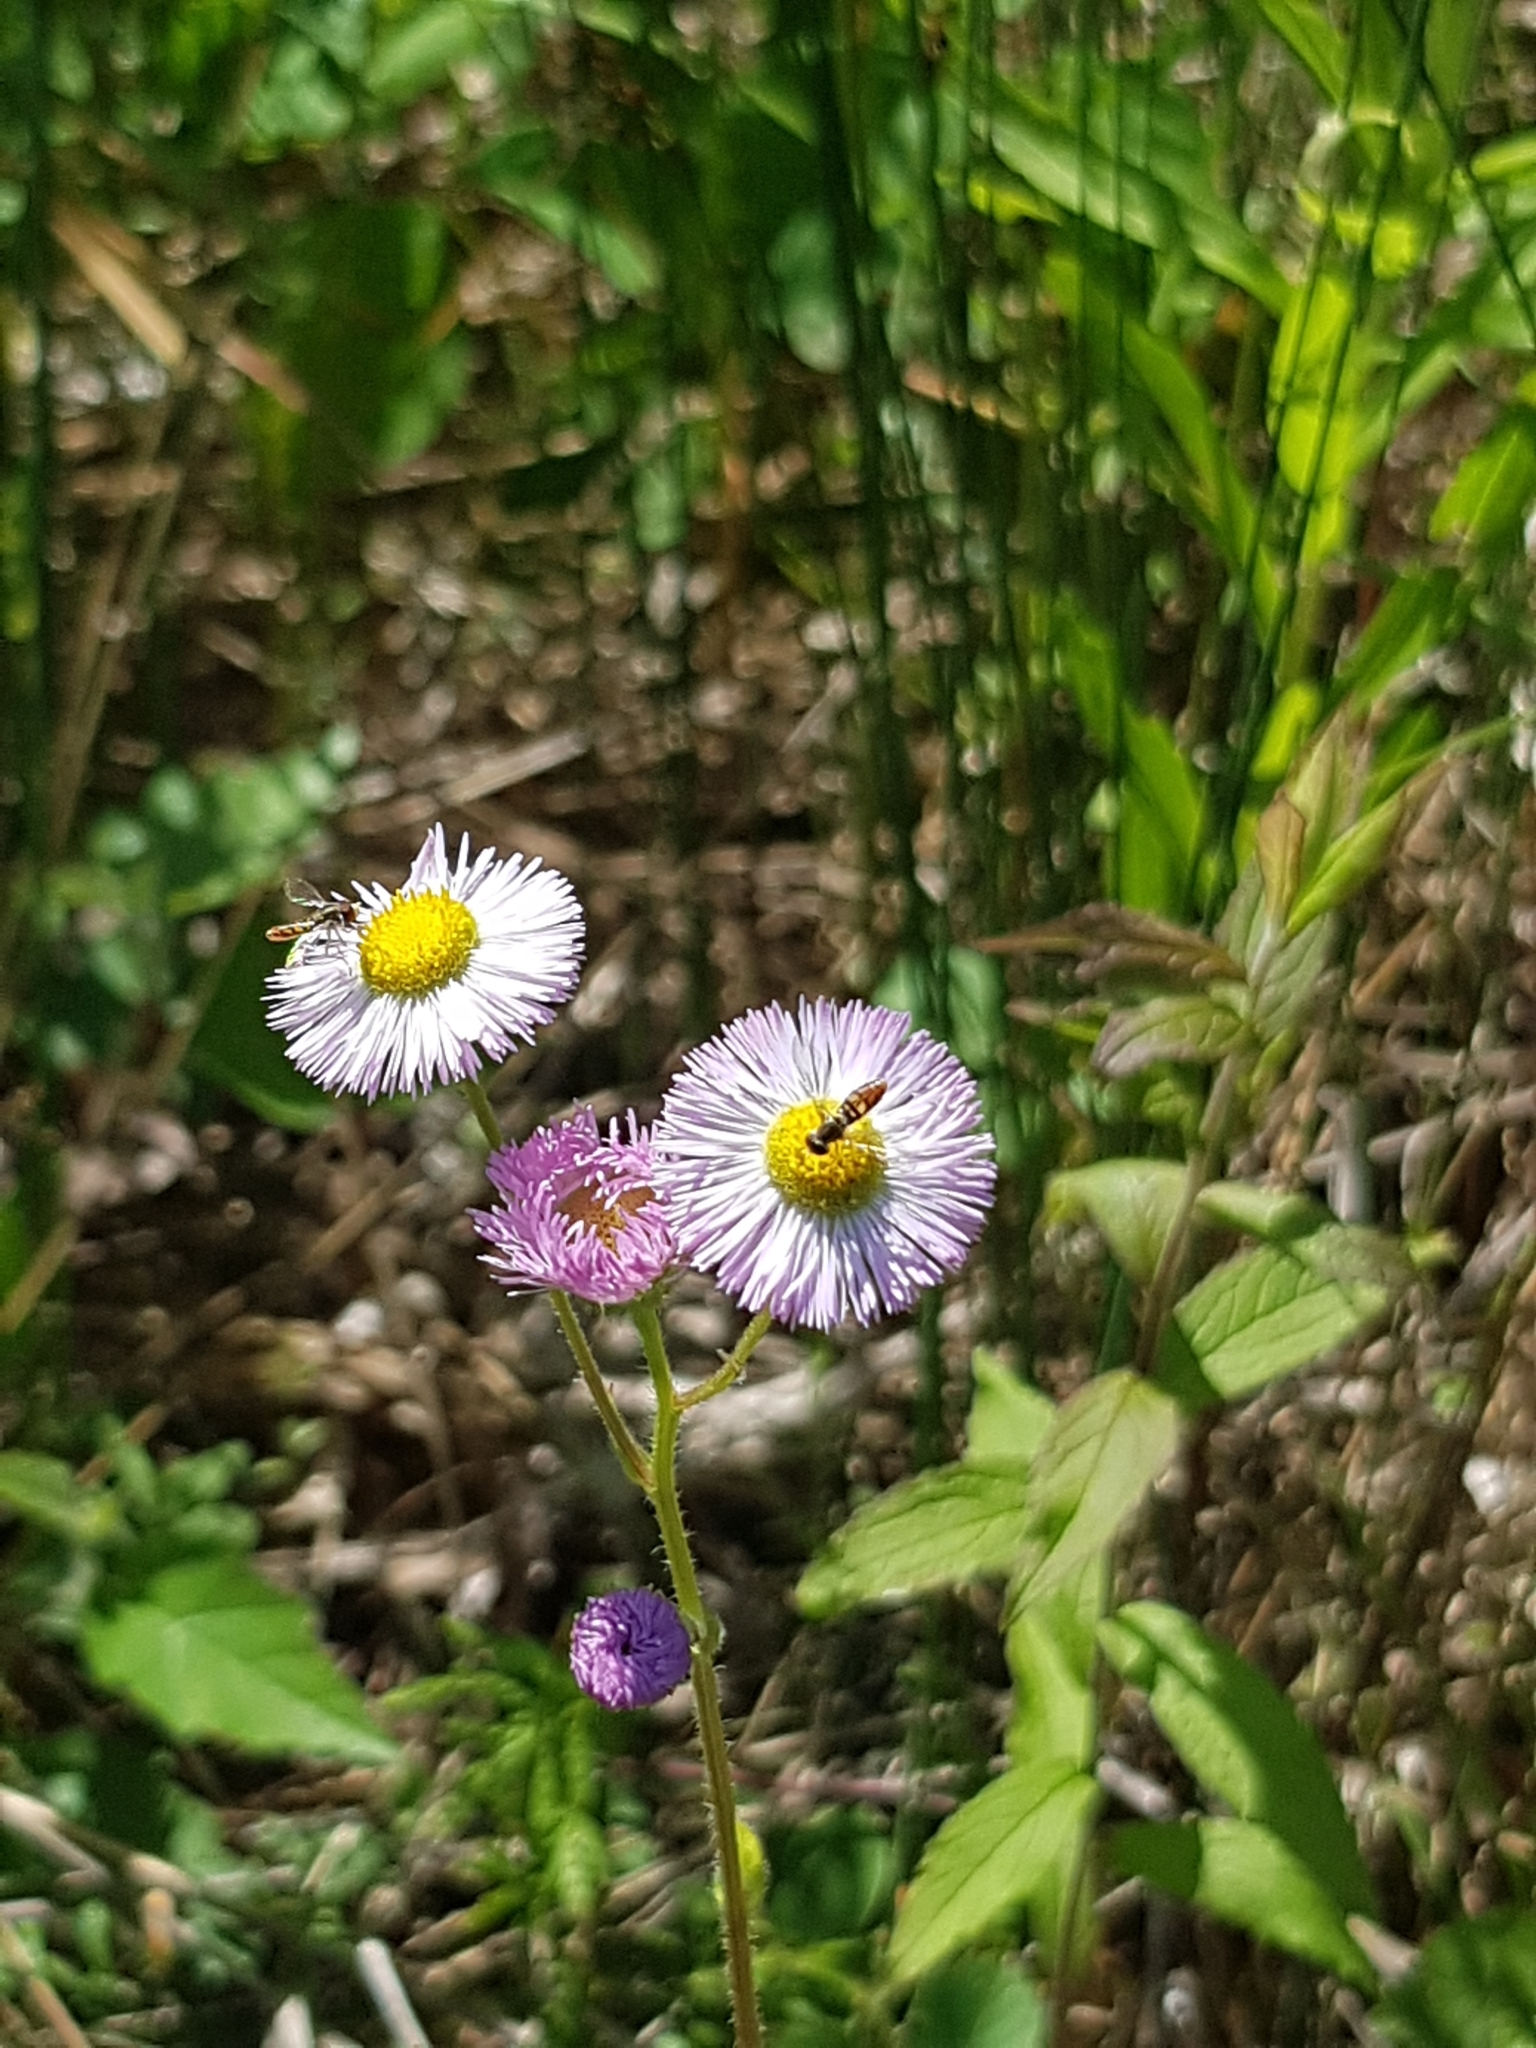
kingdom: Animalia
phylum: Arthropoda
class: Insecta
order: Diptera
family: Syrphidae
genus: Toxomerus
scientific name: Toxomerus marginatus
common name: Syrphid fly
